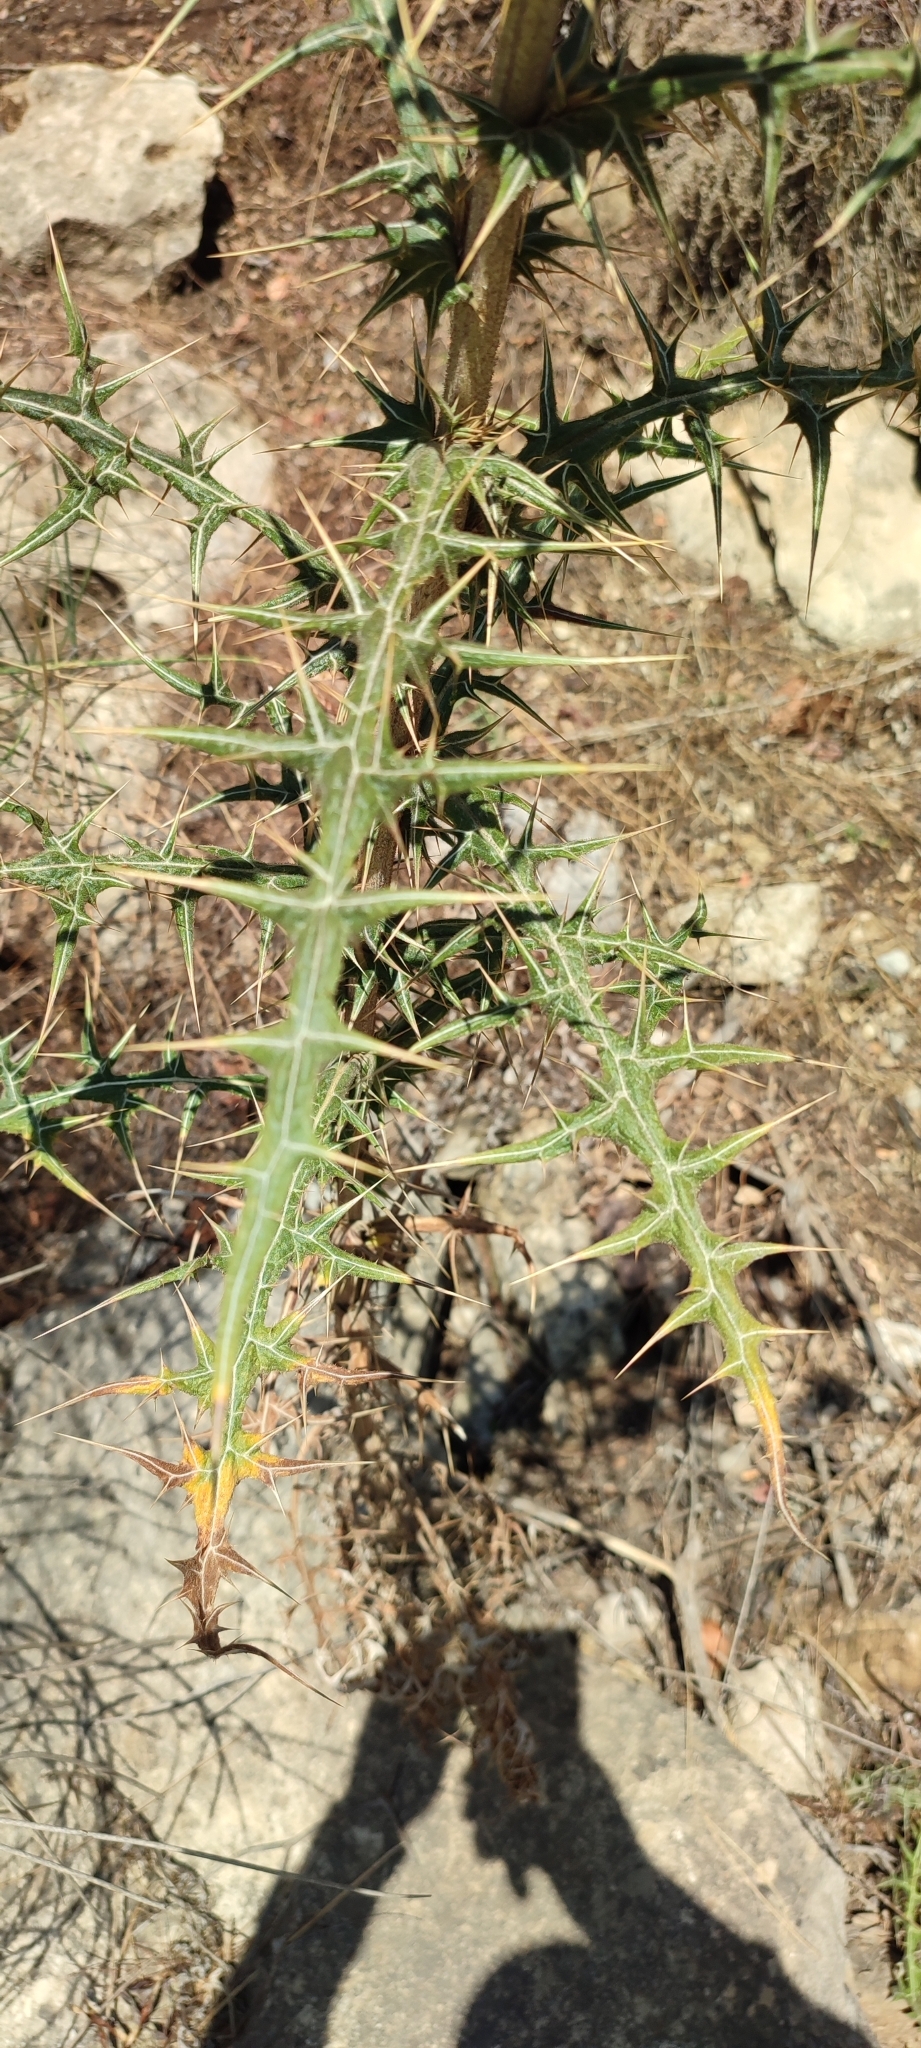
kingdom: Plantae
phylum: Tracheophyta
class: Magnoliopsida
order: Asterales
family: Asteraceae
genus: Echinops
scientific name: Echinops spinosissimus
